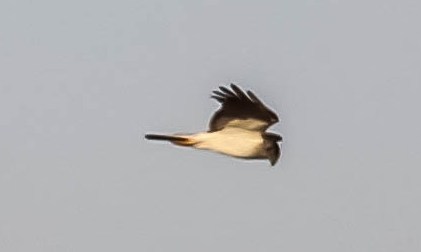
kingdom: Animalia
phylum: Chordata
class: Aves
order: Accipitriformes
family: Accipitridae
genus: Circus
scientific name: Circus melanoleucos
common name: Pied harrier
